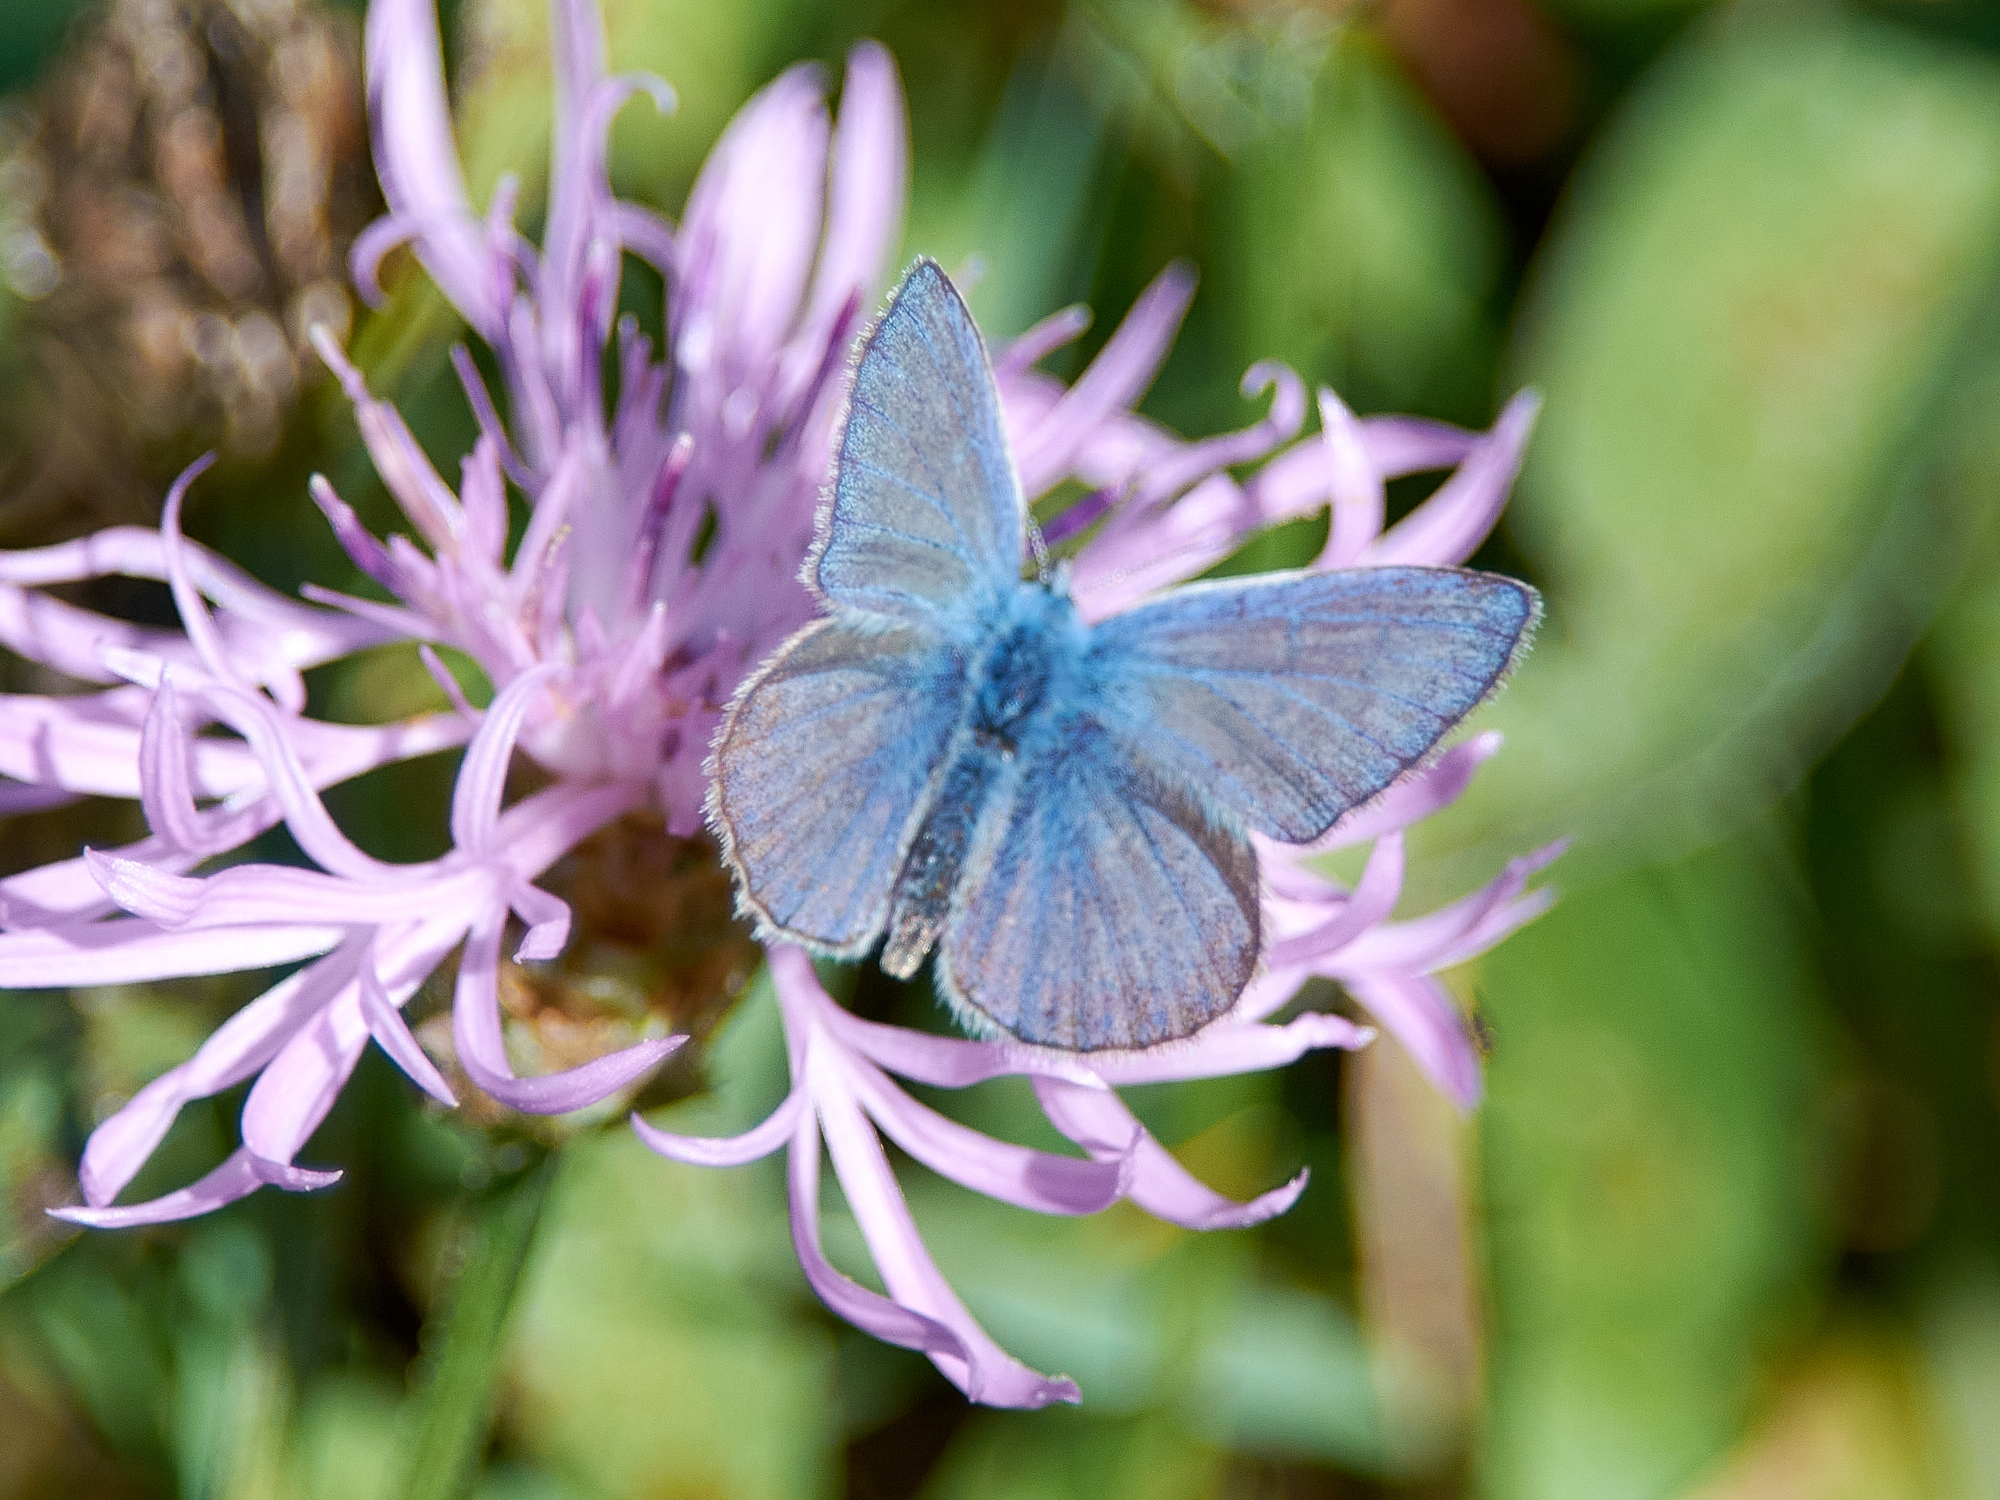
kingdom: Animalia
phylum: Arthropoda
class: Insecta
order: Lepidoptera
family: Lycaenidae
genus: Polyommatus
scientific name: Polyommatus icarus
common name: Common blue
